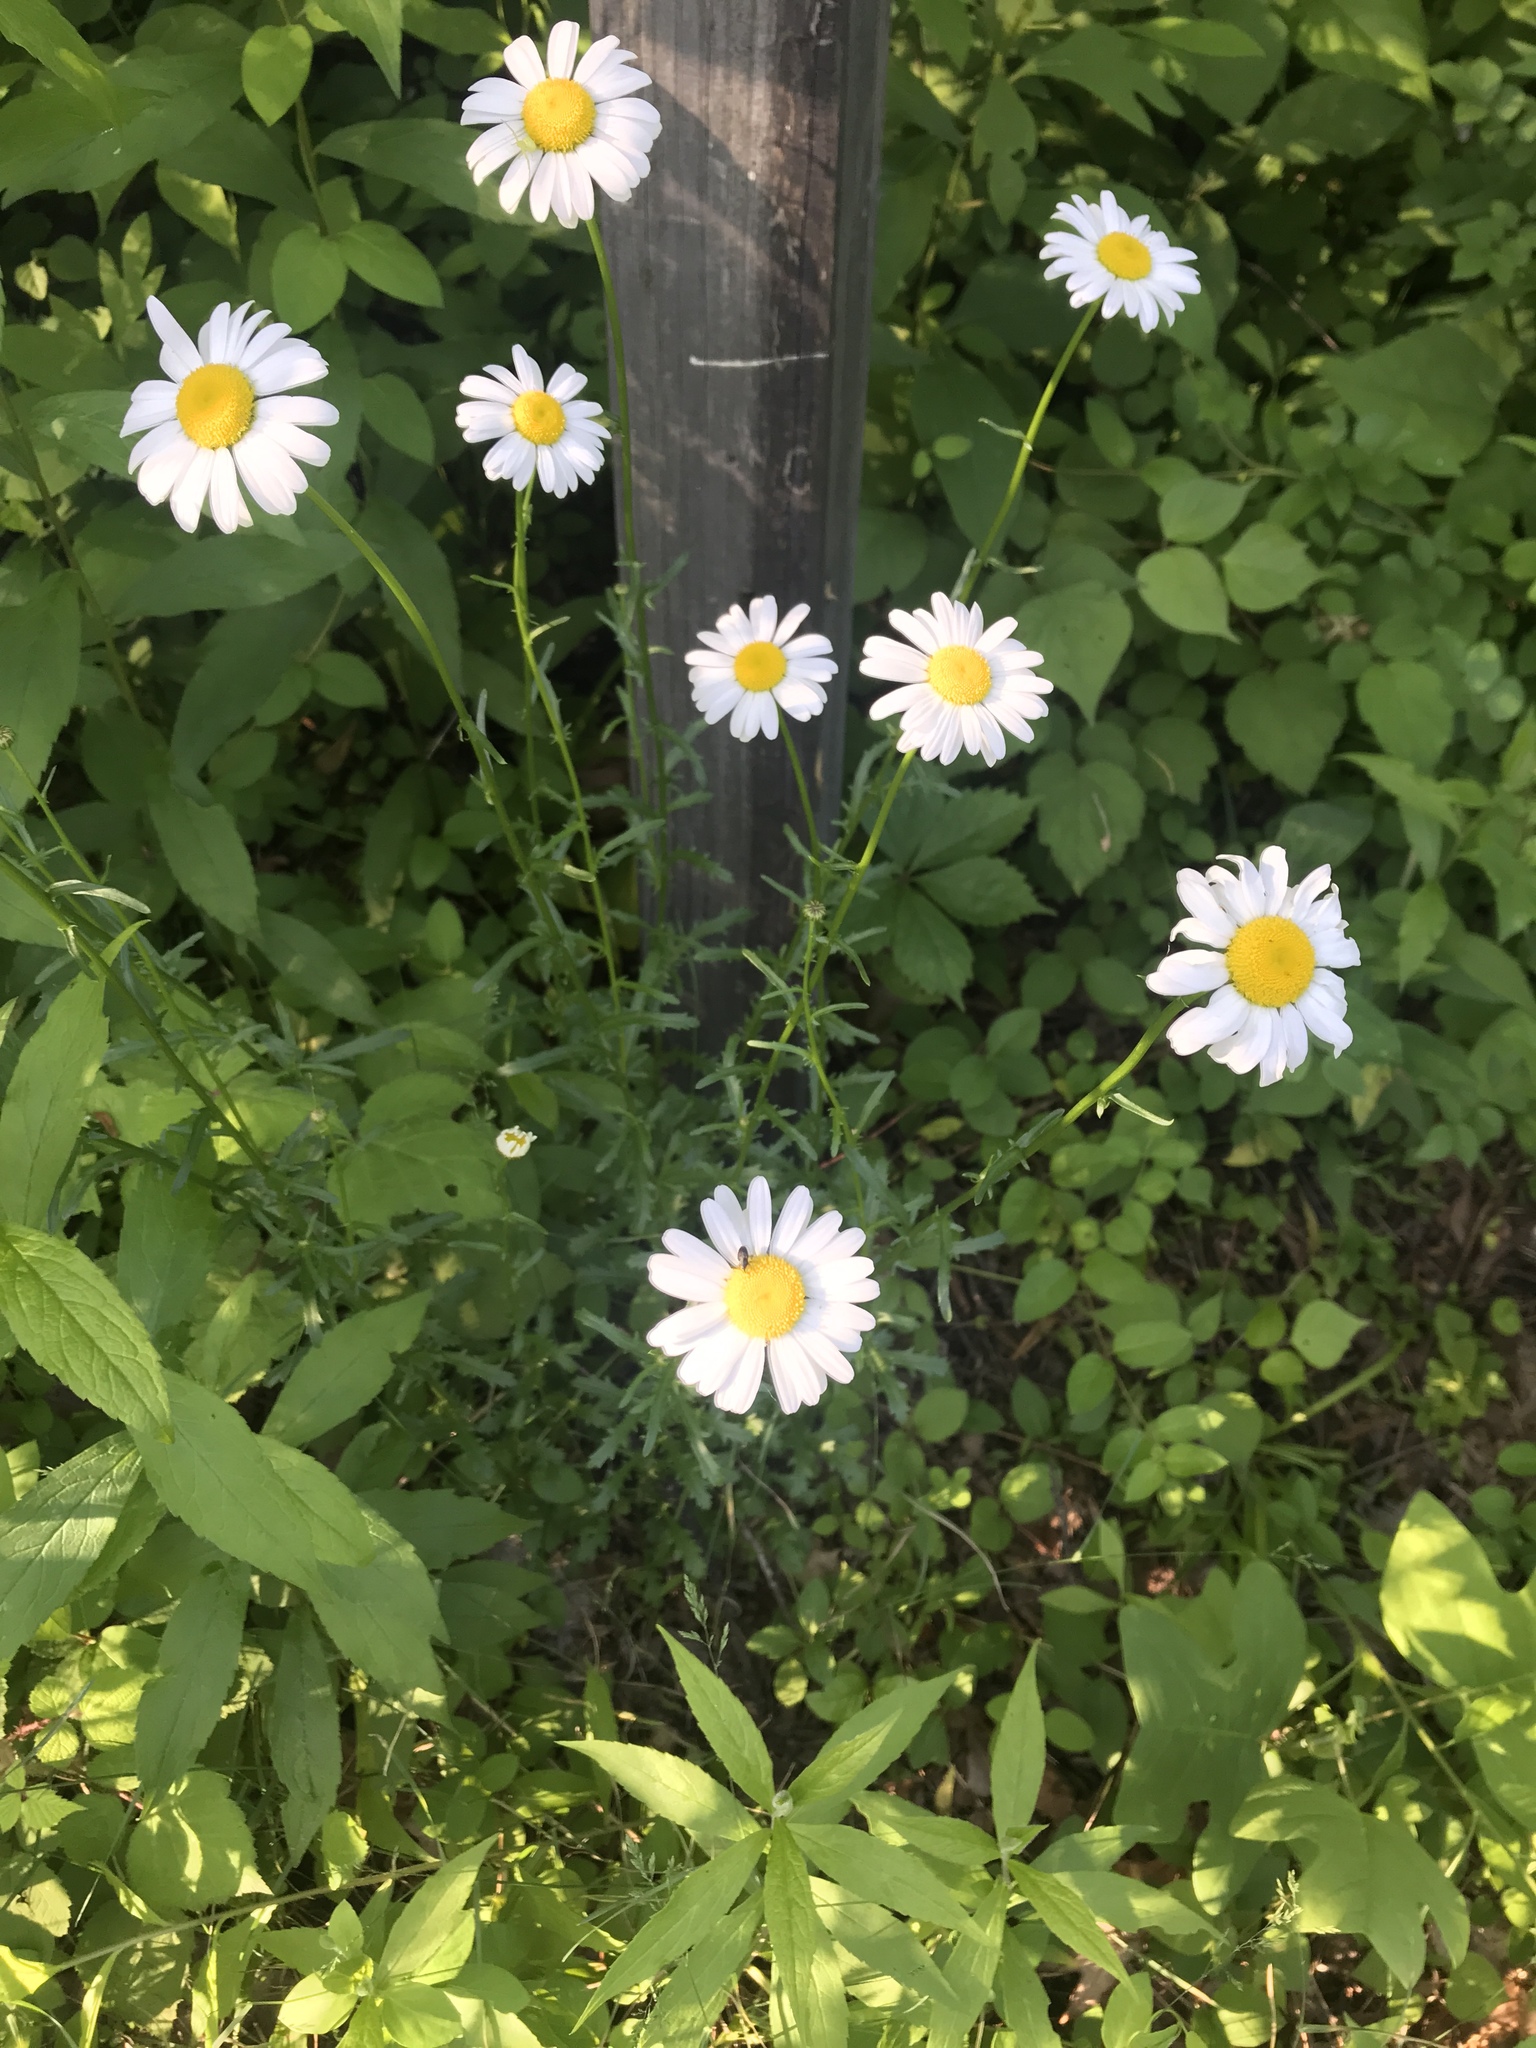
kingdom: Plantae
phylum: Tracheophyta
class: Magnoliopsida
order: Asterales
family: Asteraceae
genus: Leucanthemum
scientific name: Leucanthemum vulgare
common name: Oxeye daisy
